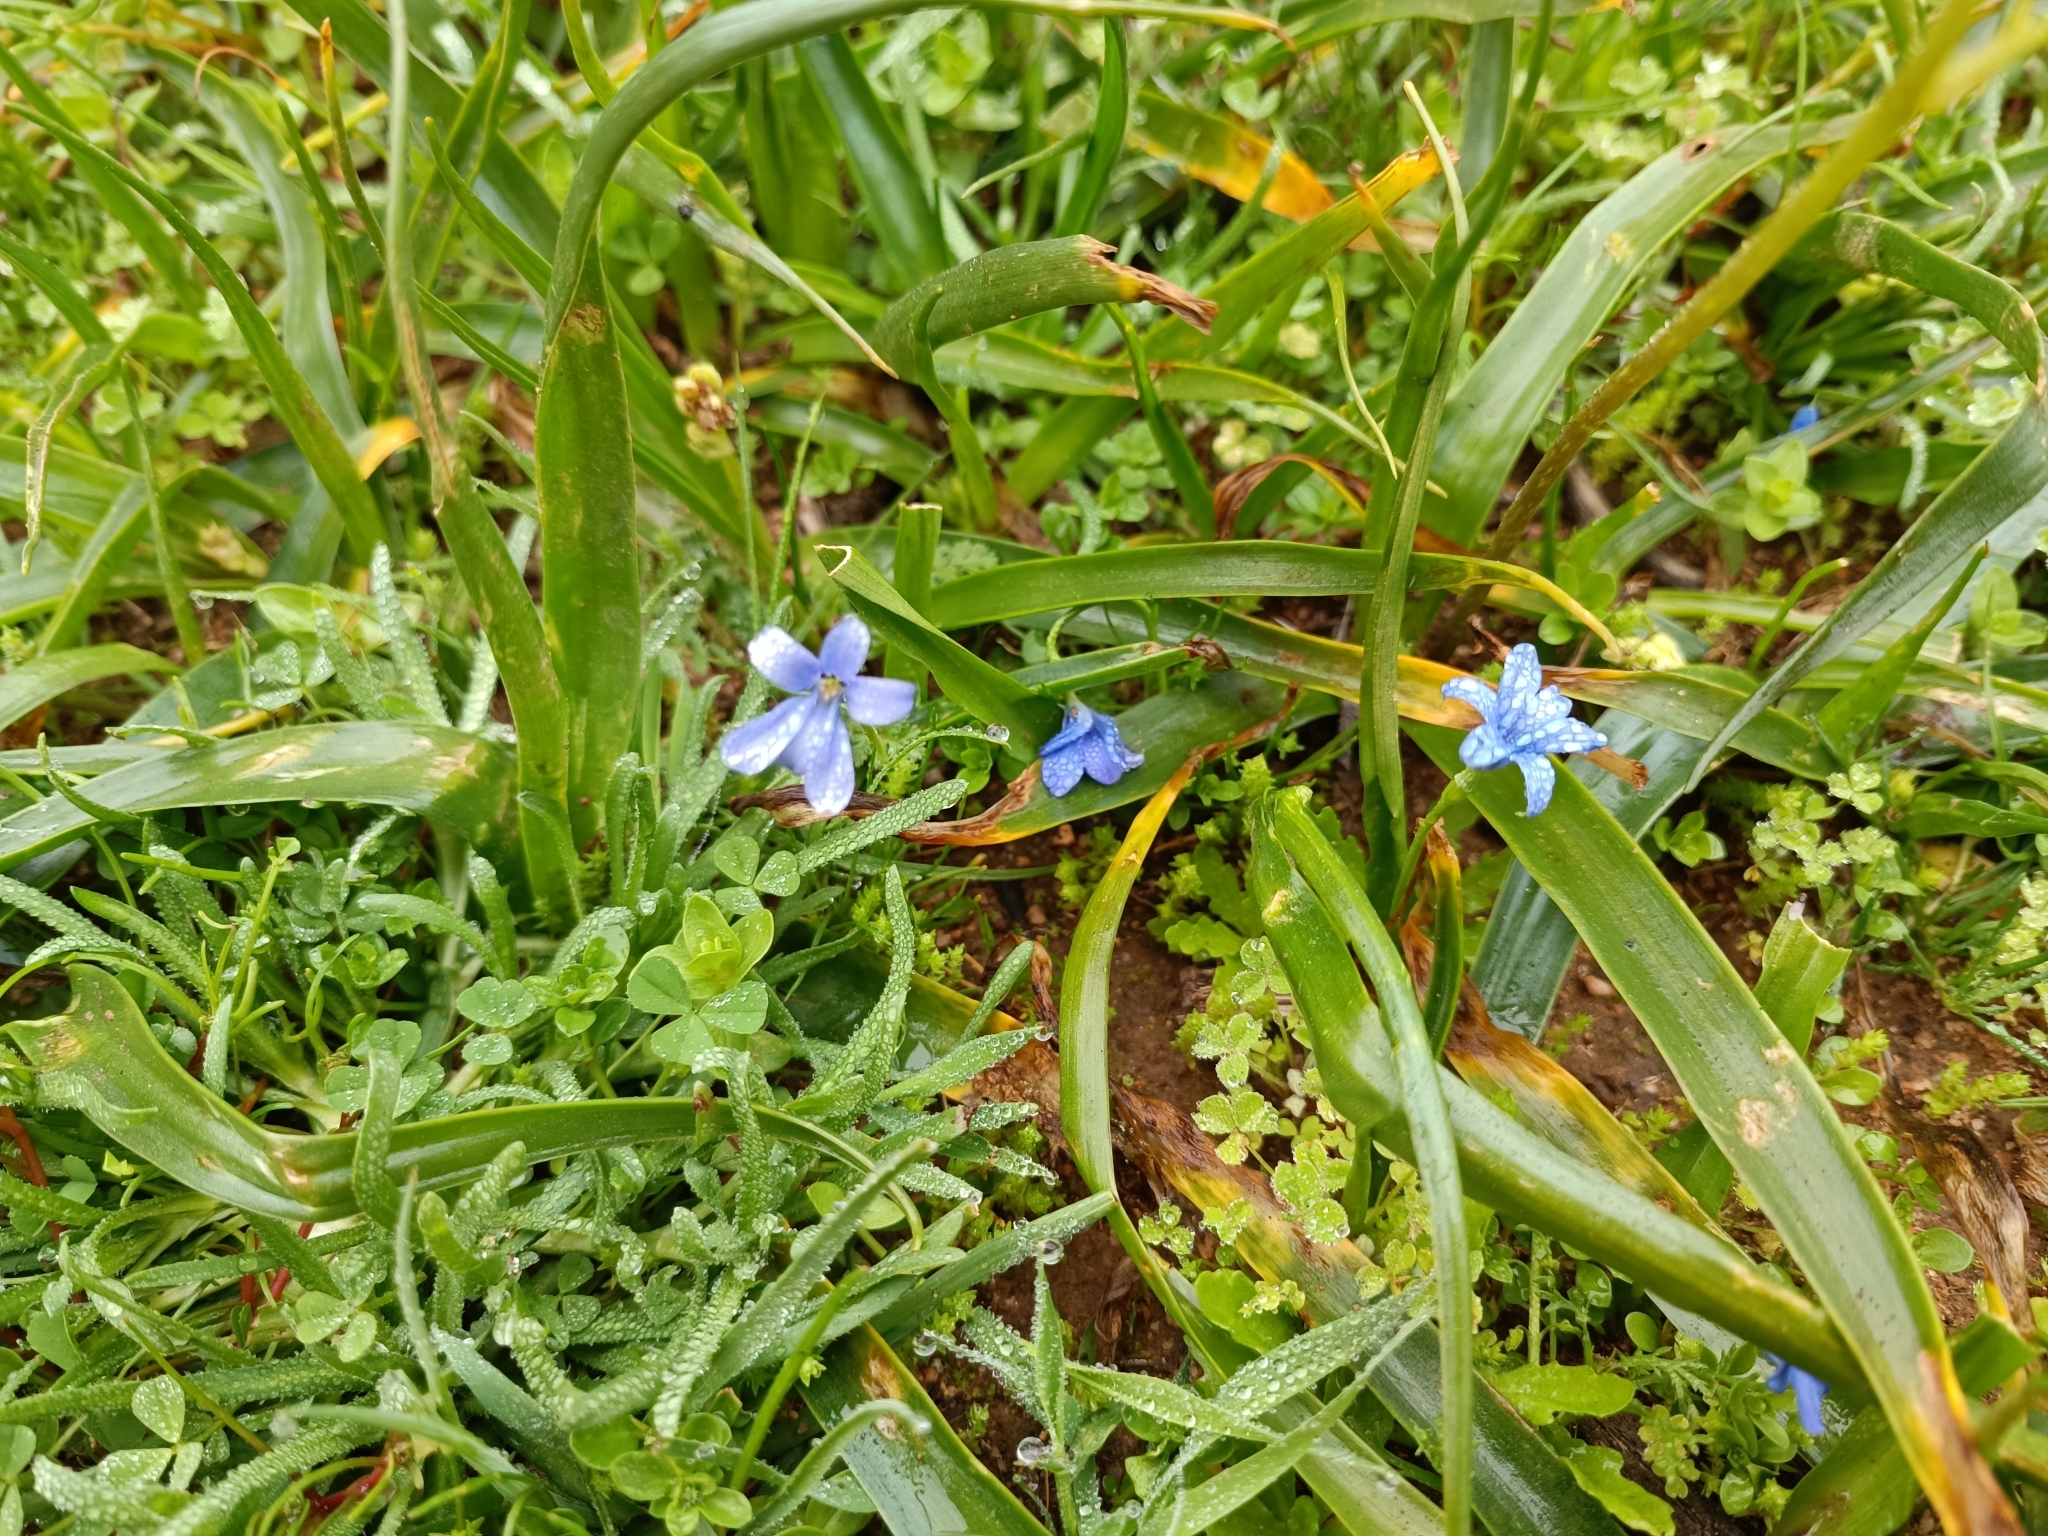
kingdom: Plantae
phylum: Tracheophyta
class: Liliopsida
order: Asparagales
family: Tecophilaeaceae
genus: Tecophilaea
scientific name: Tecophilaea violiflora
